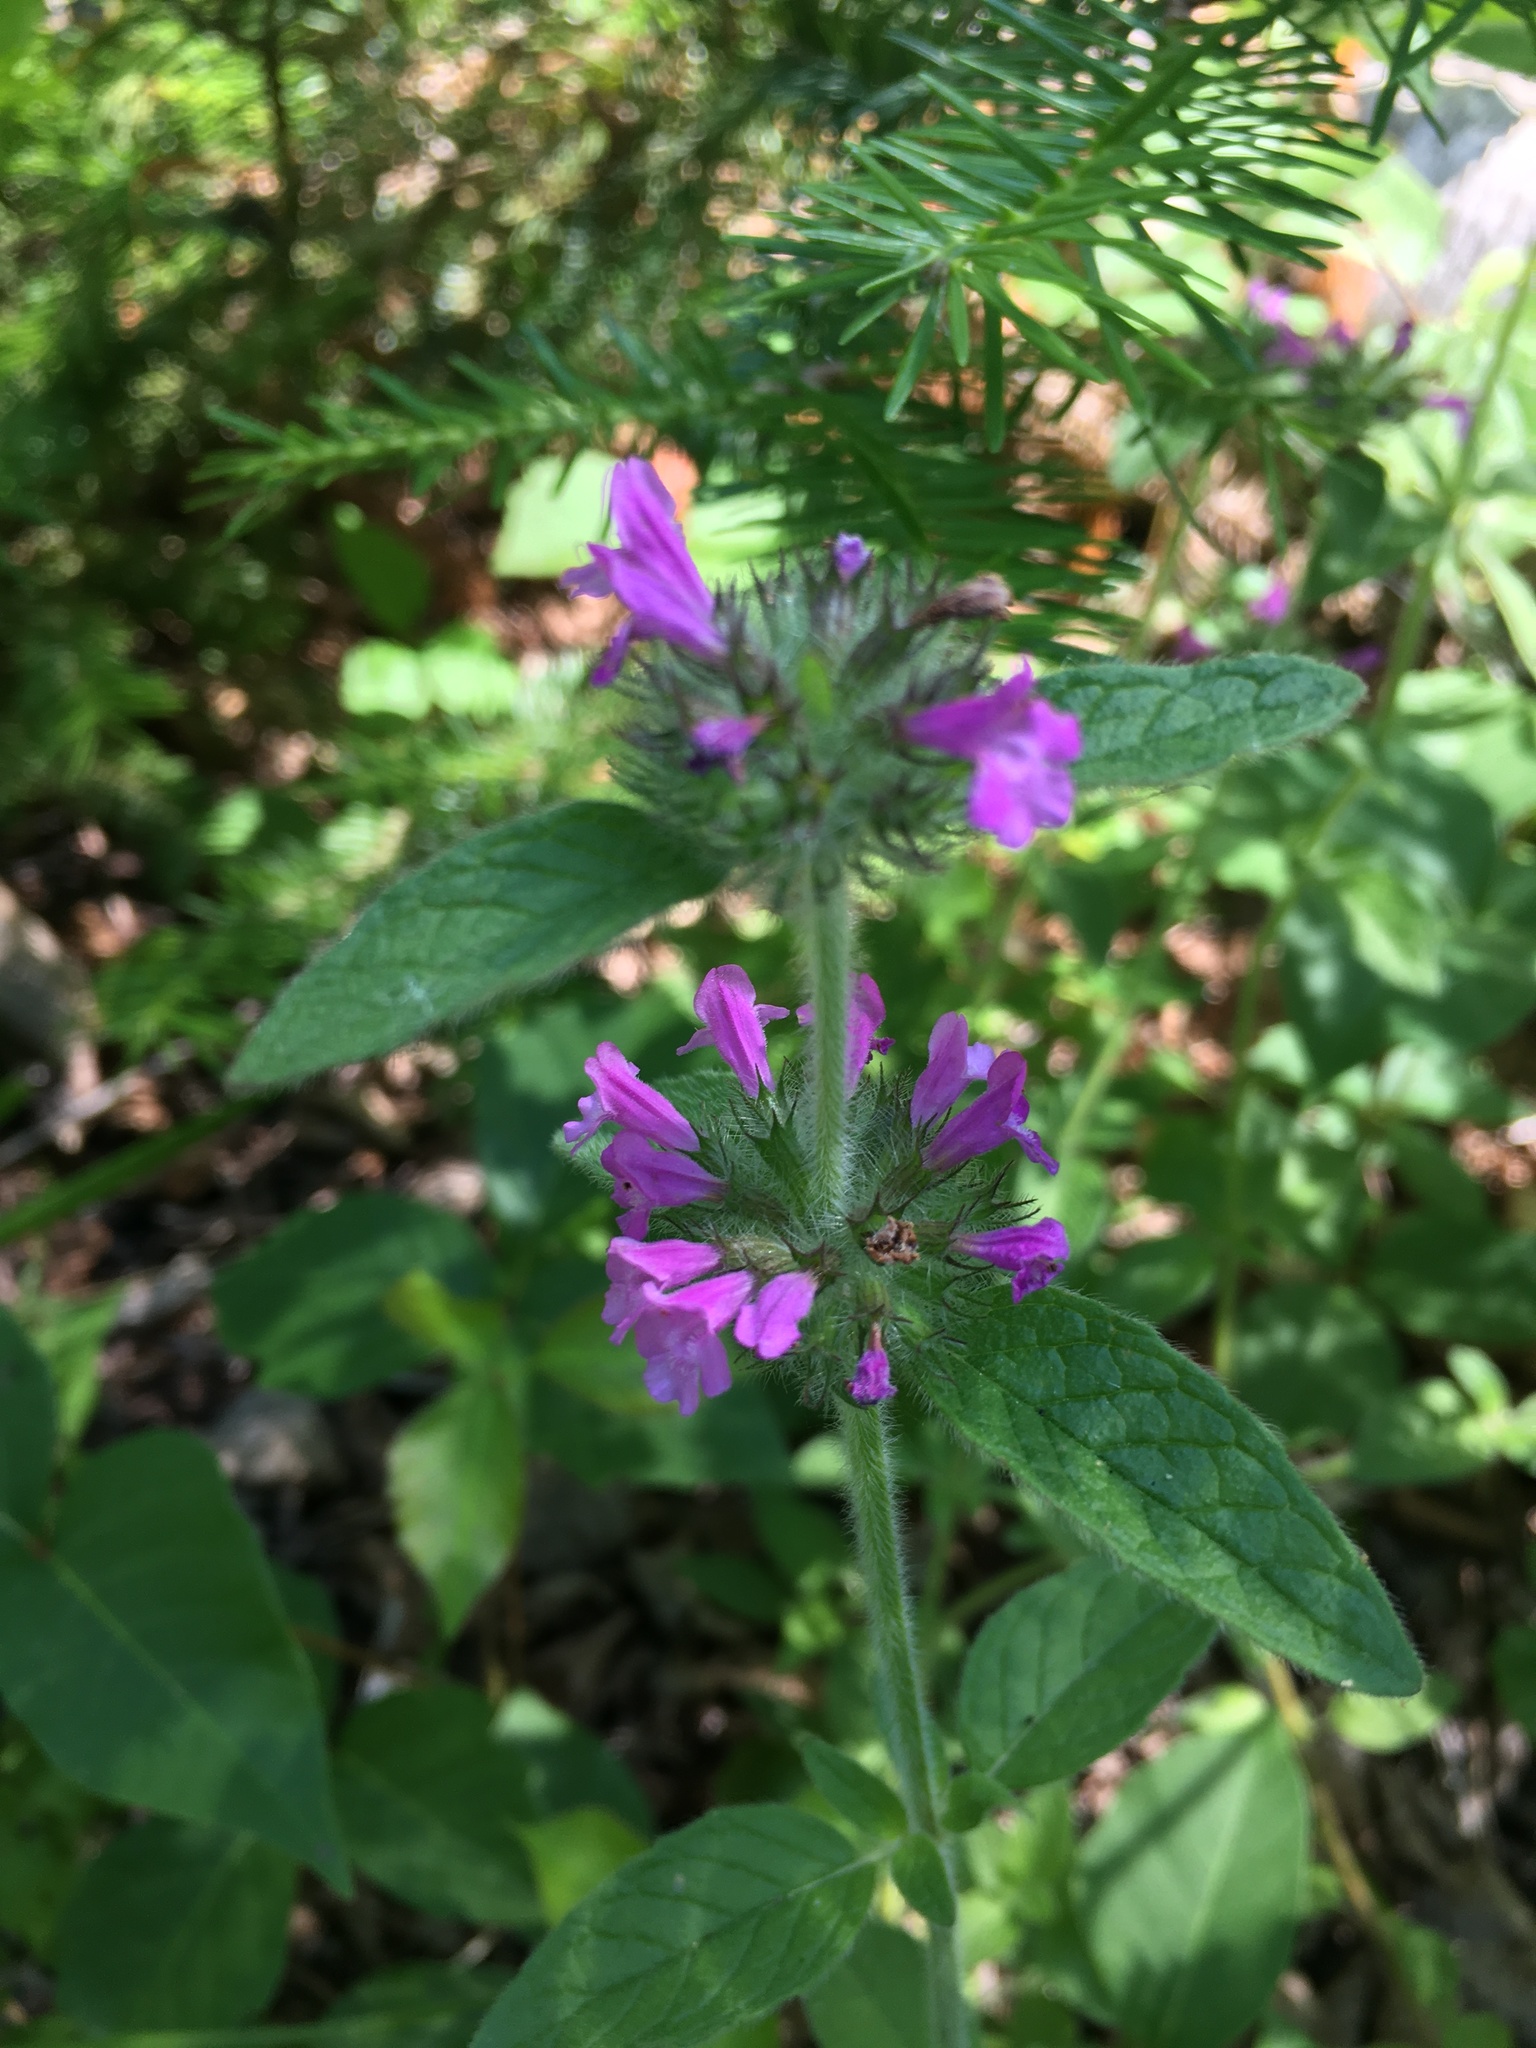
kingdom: Plantae
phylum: Tracheophyta
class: Magnoliopsida
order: Lamiales
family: Lamiaceae
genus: Clinopodium
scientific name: Clinopodium vulgare
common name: Wild basil
